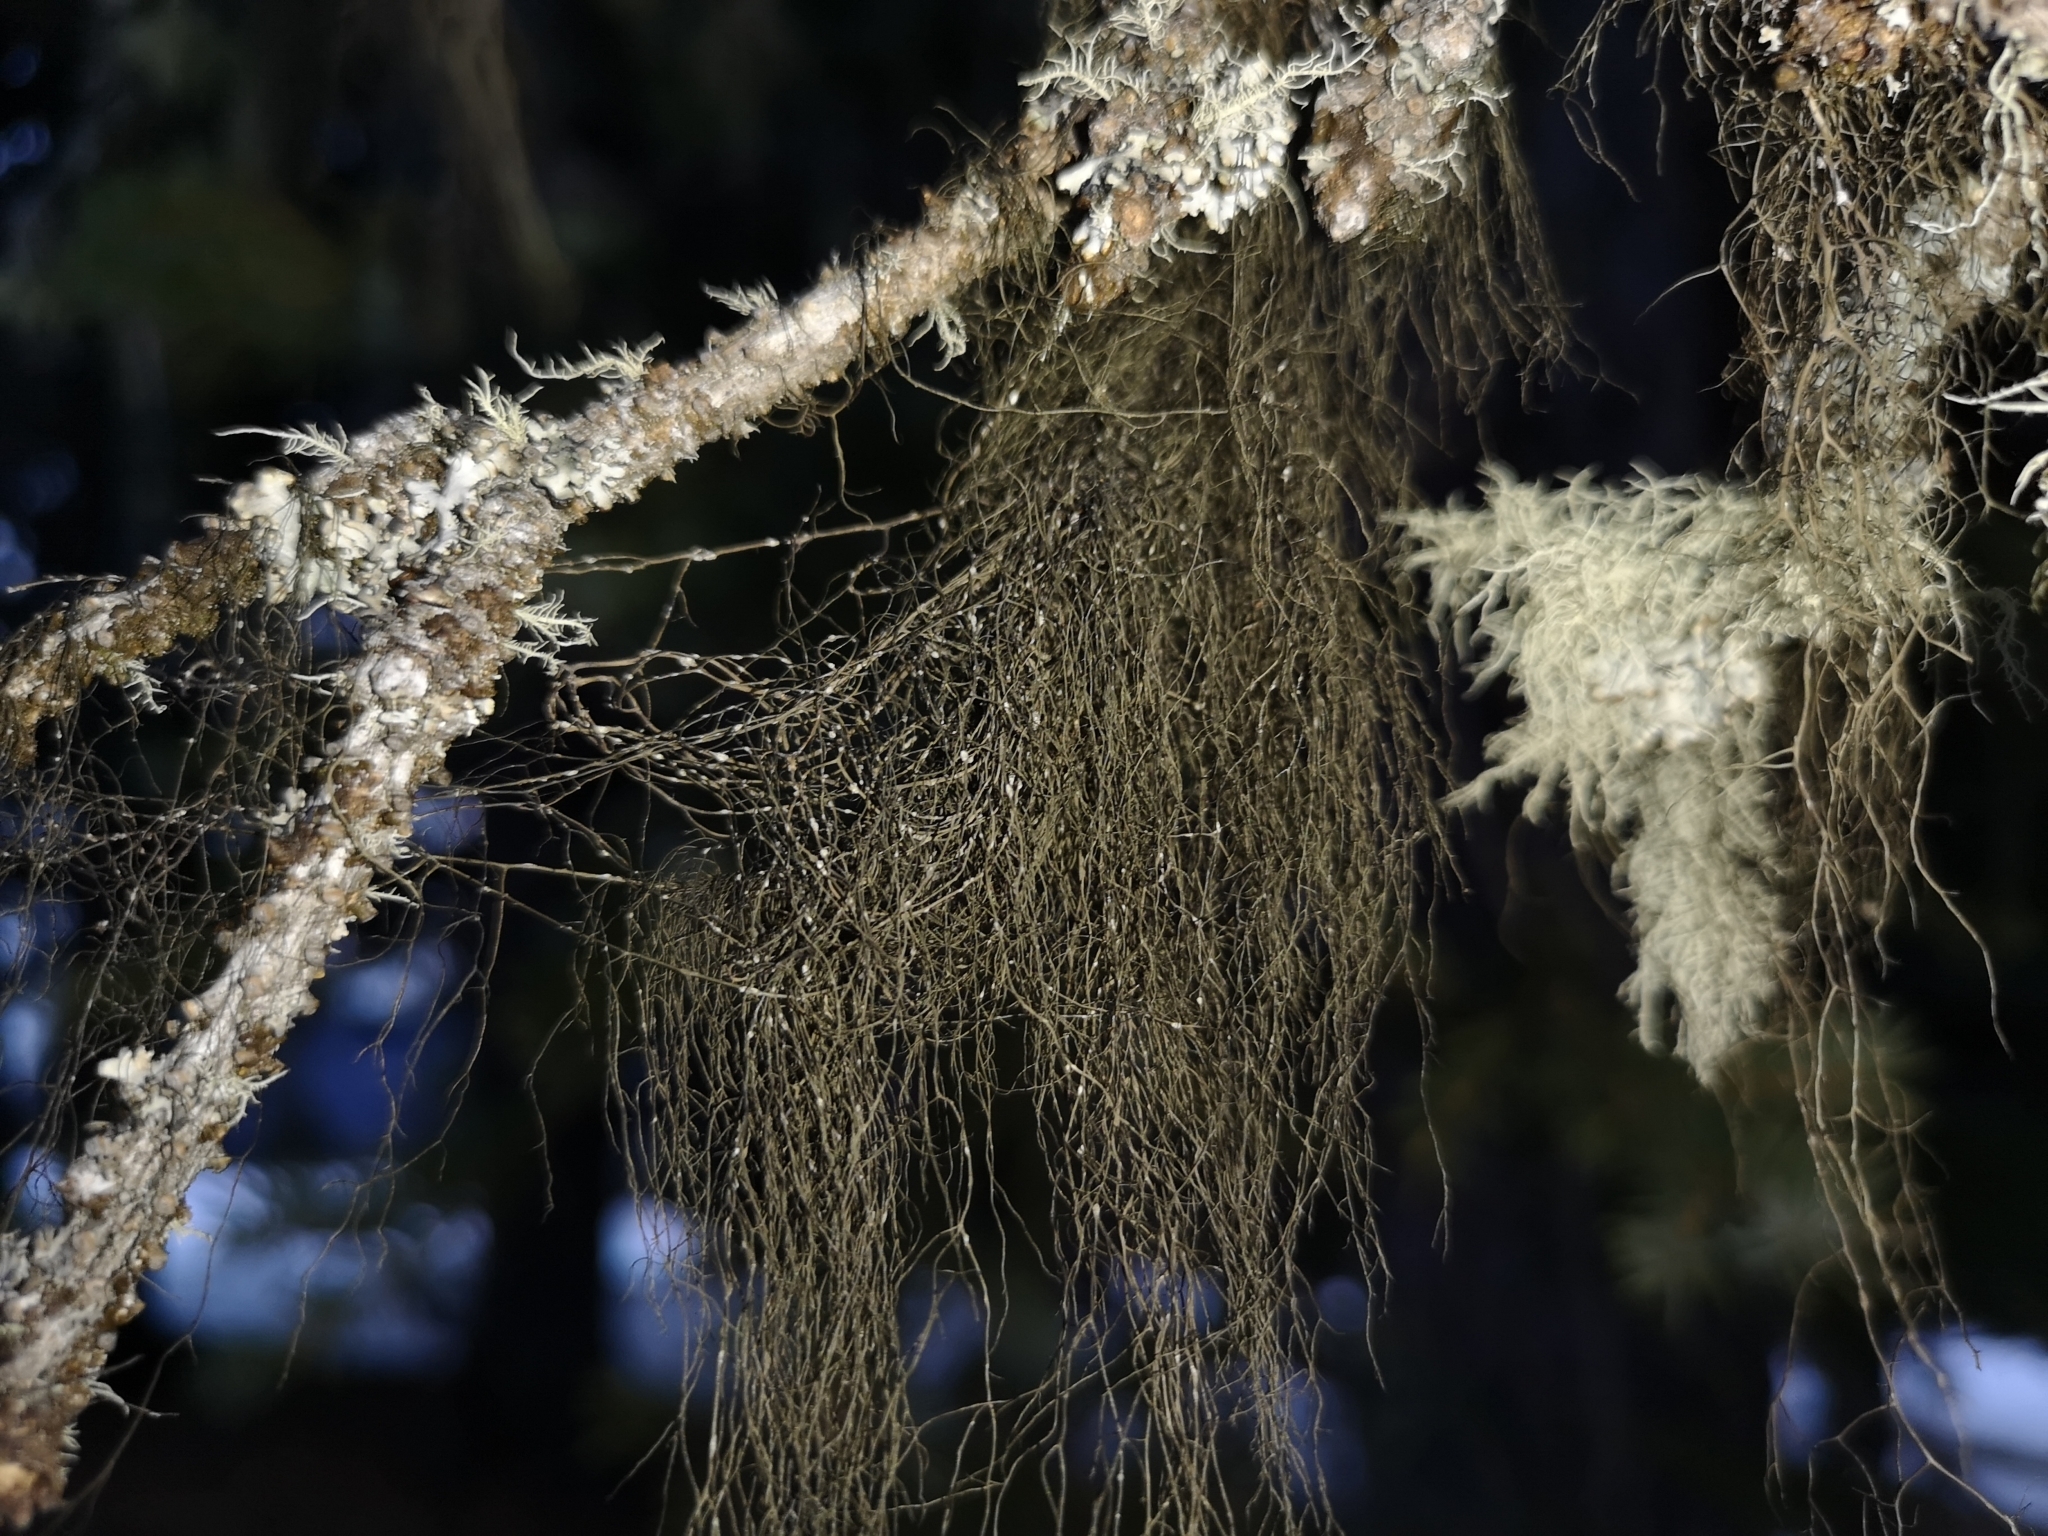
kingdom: Fungi
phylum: Ascomycota
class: Lecanoromycetes
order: Lecanorales
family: Parmeliaceae
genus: Bryoria
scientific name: Bryoria fuscescens
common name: Pale-footed horsehair lichen
